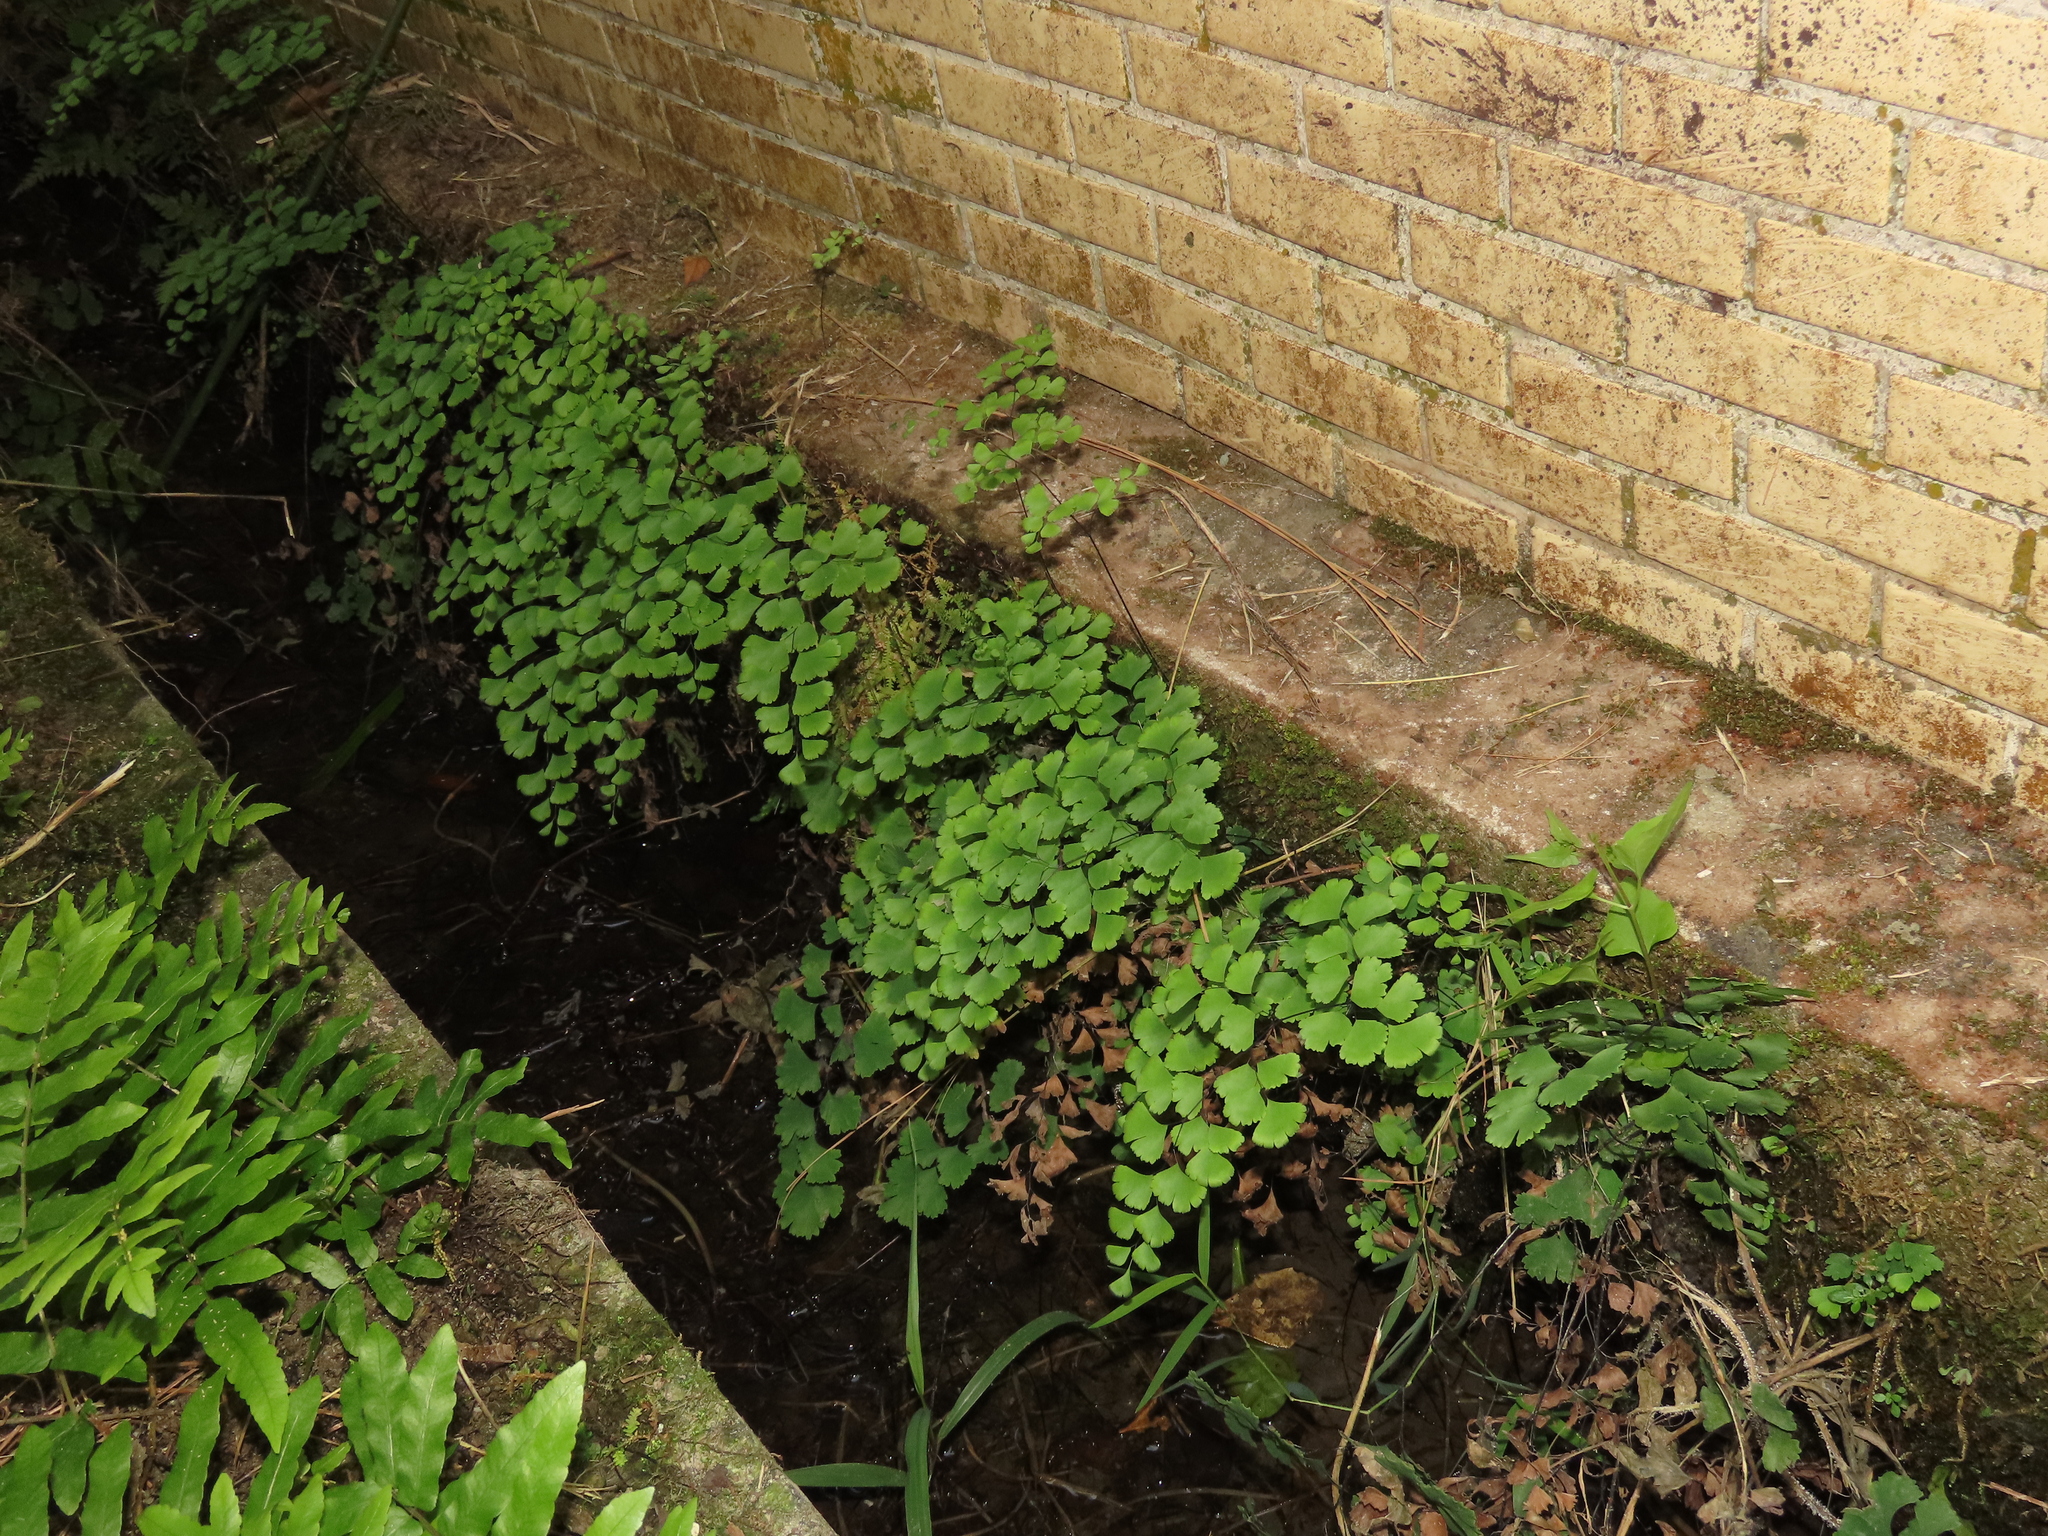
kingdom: Plantae
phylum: Tracheophyta
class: Polypodiopsida
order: Polypodiales
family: Pteridaceae
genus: Adiantum
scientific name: Adiantum capillus-veneris
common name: Maidenhair fern
